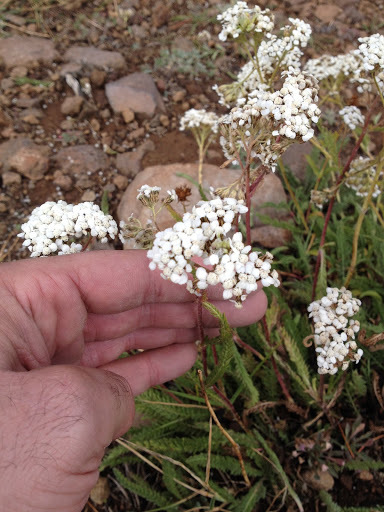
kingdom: Plantae
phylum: Tracheophyta
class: Magnoliopsida
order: Asterales
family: Asteraceae
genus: Achillea
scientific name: Achillea millefolium
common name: Yarrow
